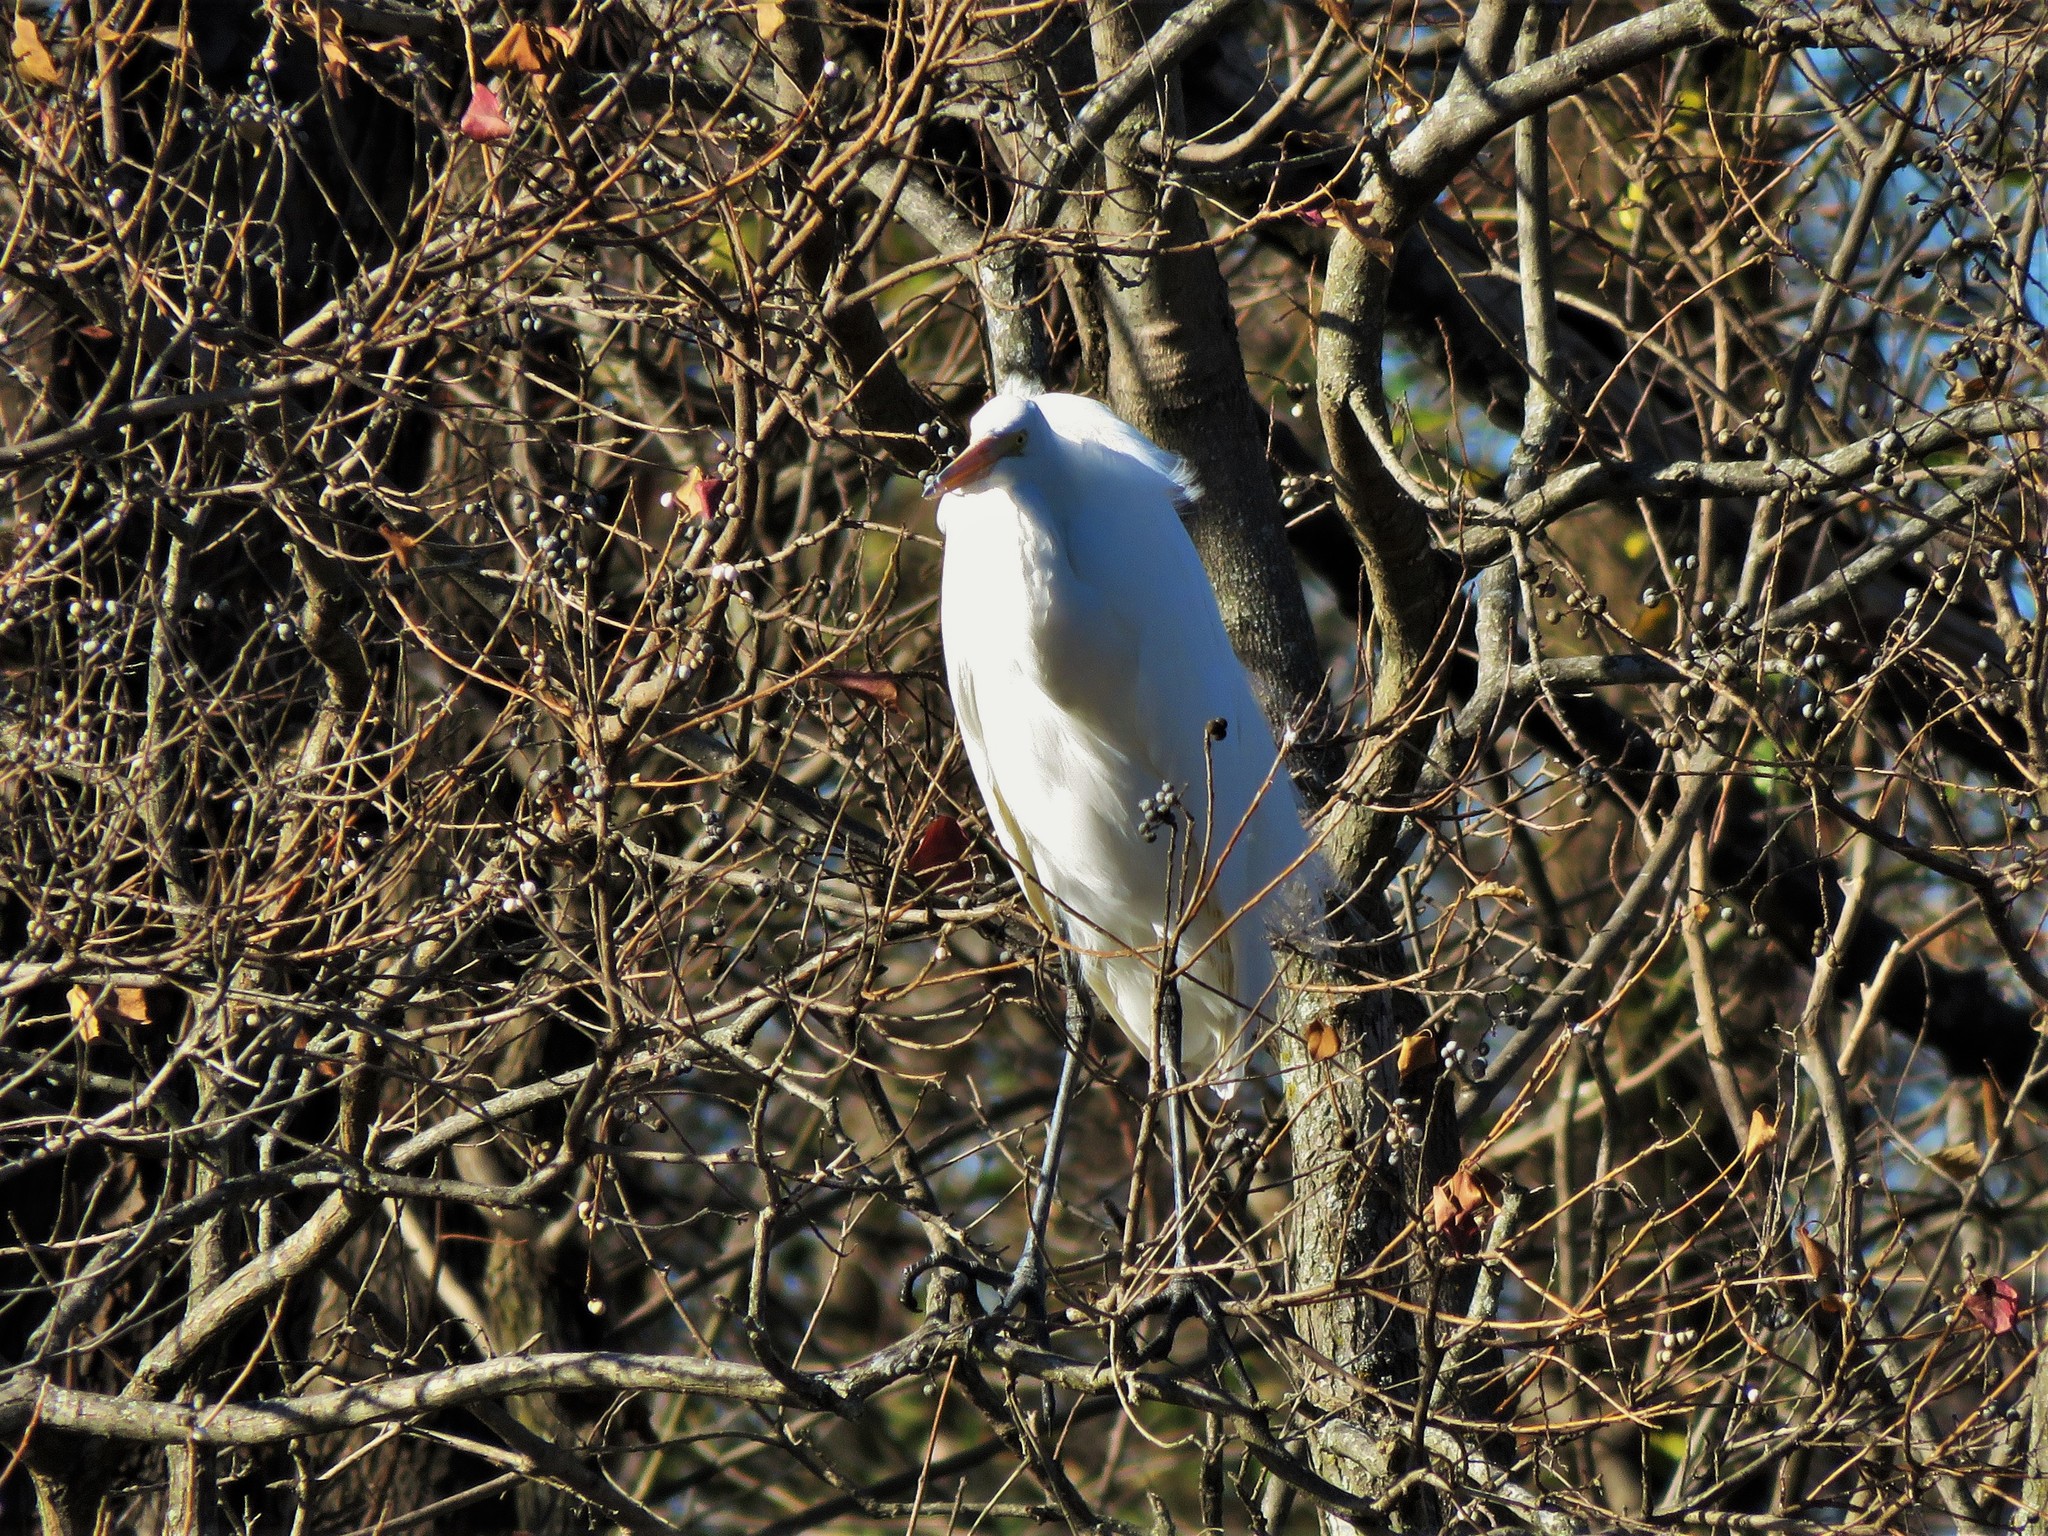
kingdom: Animalia
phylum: Chordata
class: Aves
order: Pelecaniformes
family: Ardeidae
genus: Ardea
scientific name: Ardea alba
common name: Great egret
